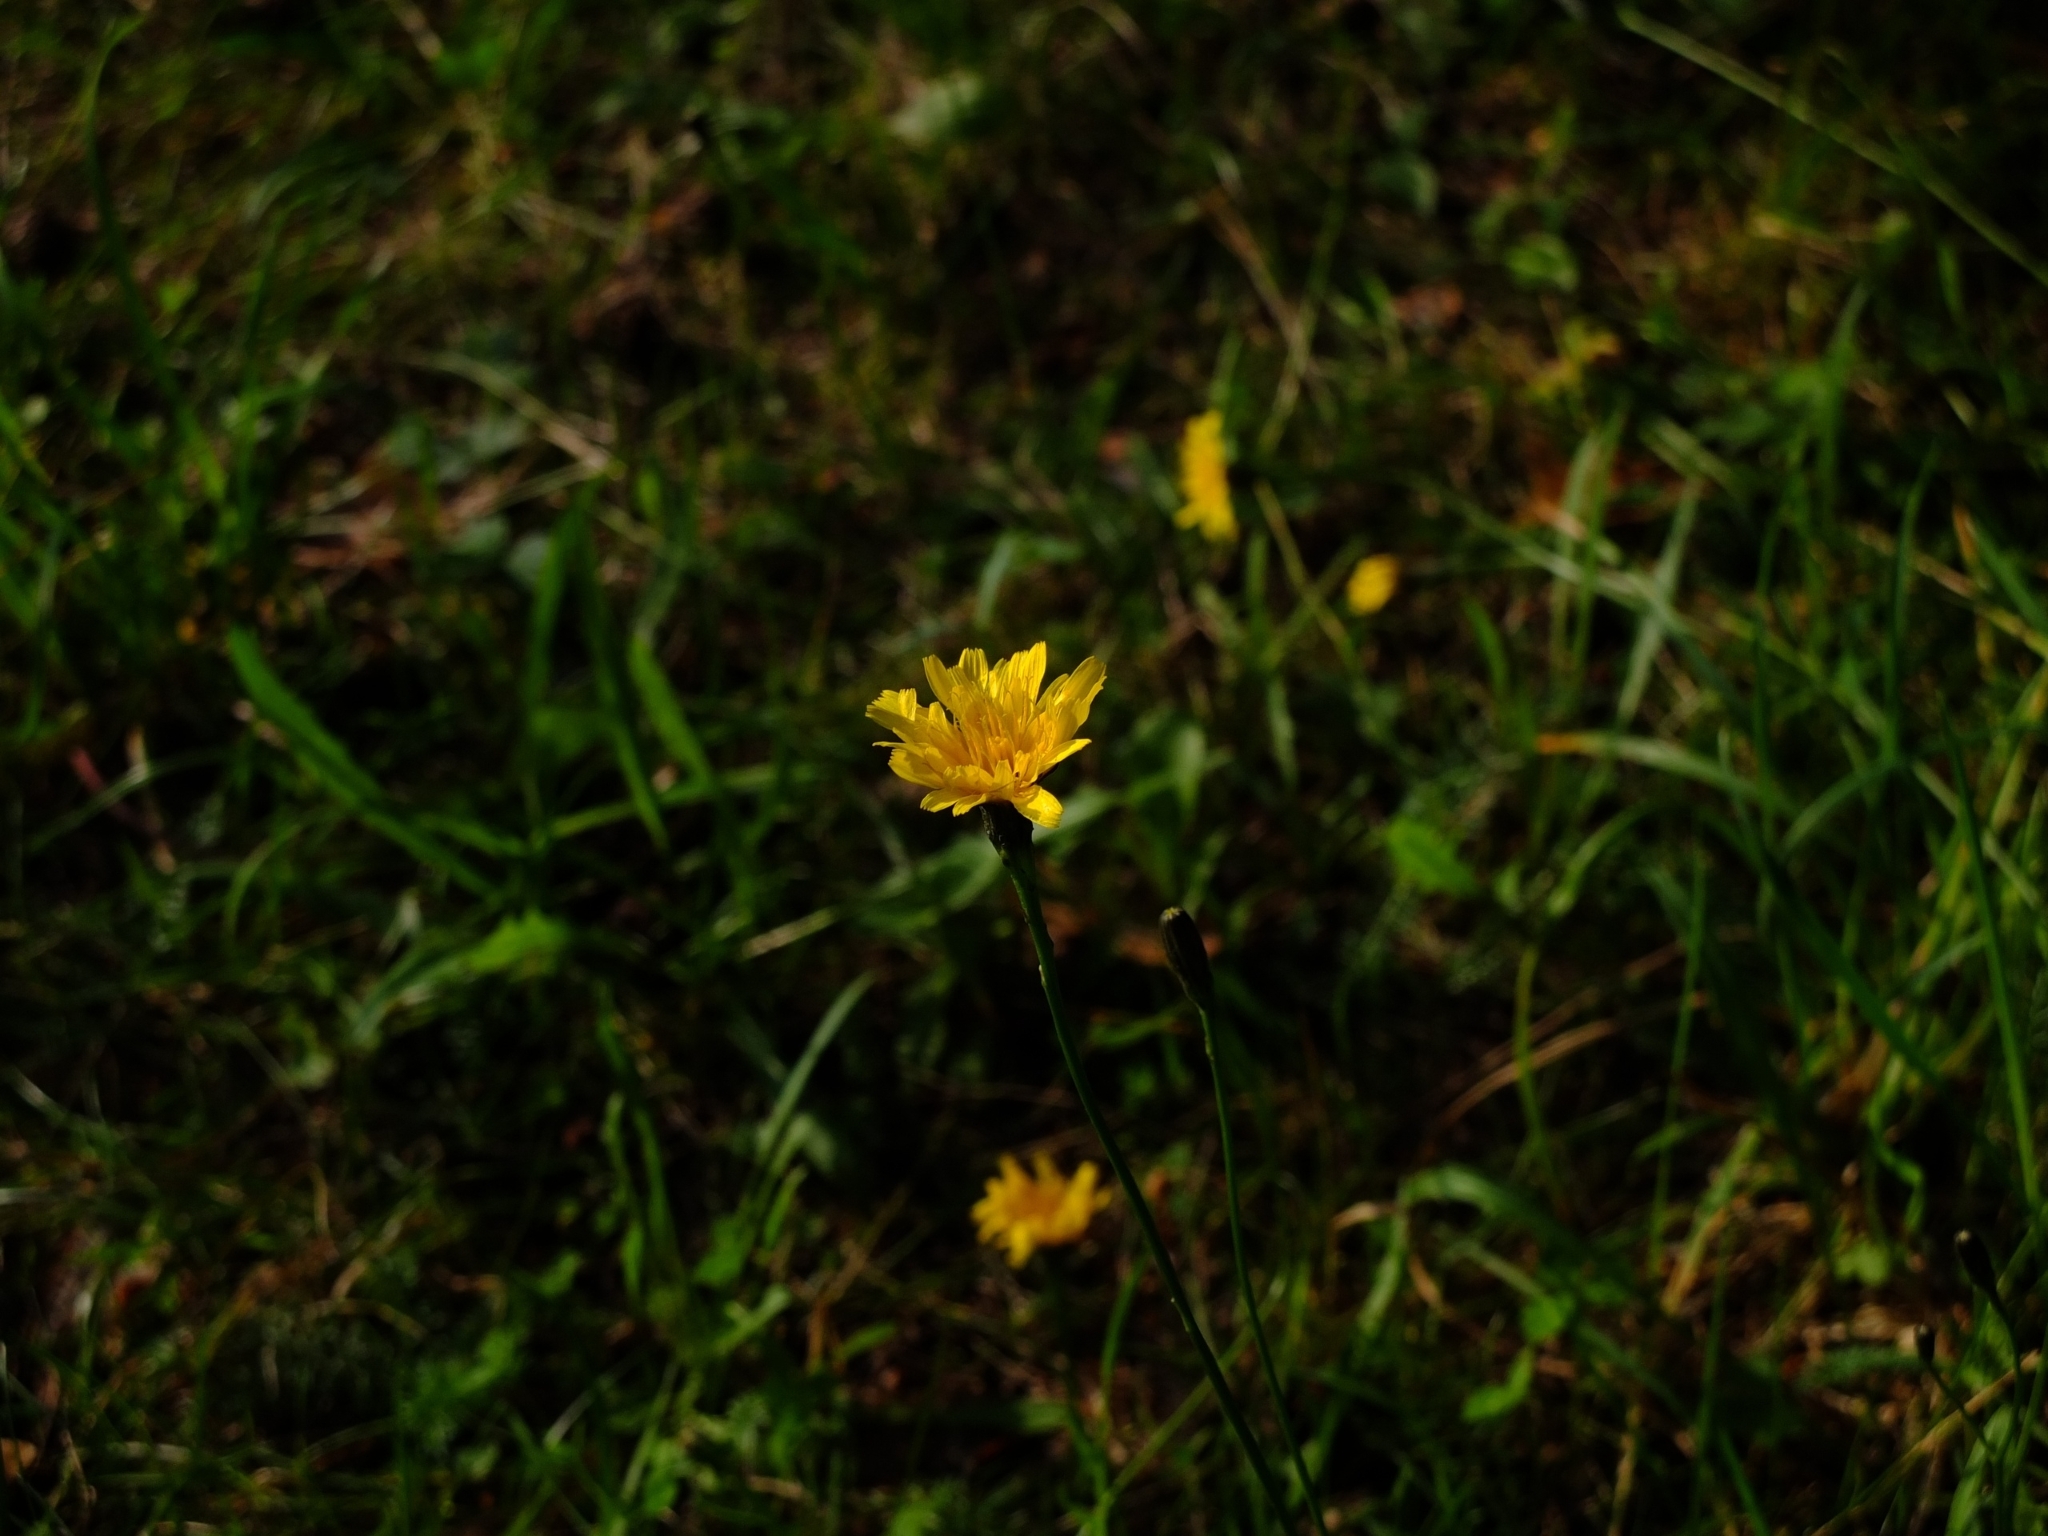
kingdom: Plantae
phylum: Tracheophyta
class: Magnoliopsida
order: Asterales
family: Asteraceae
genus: Scorzoneroides
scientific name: Scorzoneroides autumnalis
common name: Autumn hawkbit
